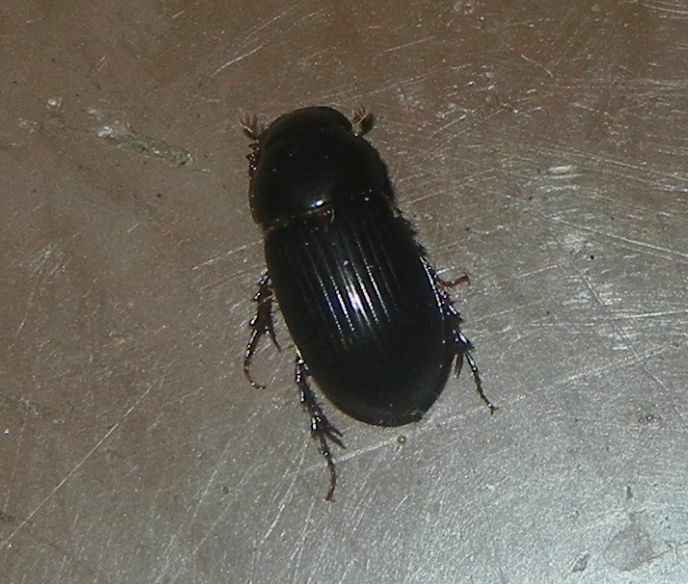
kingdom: Animalia
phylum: Arthropoda
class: Insecta
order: Coleoptera
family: Scarabaeidae
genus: Acrossus
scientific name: Acrossus rufipes
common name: Night-flying dung beetle
